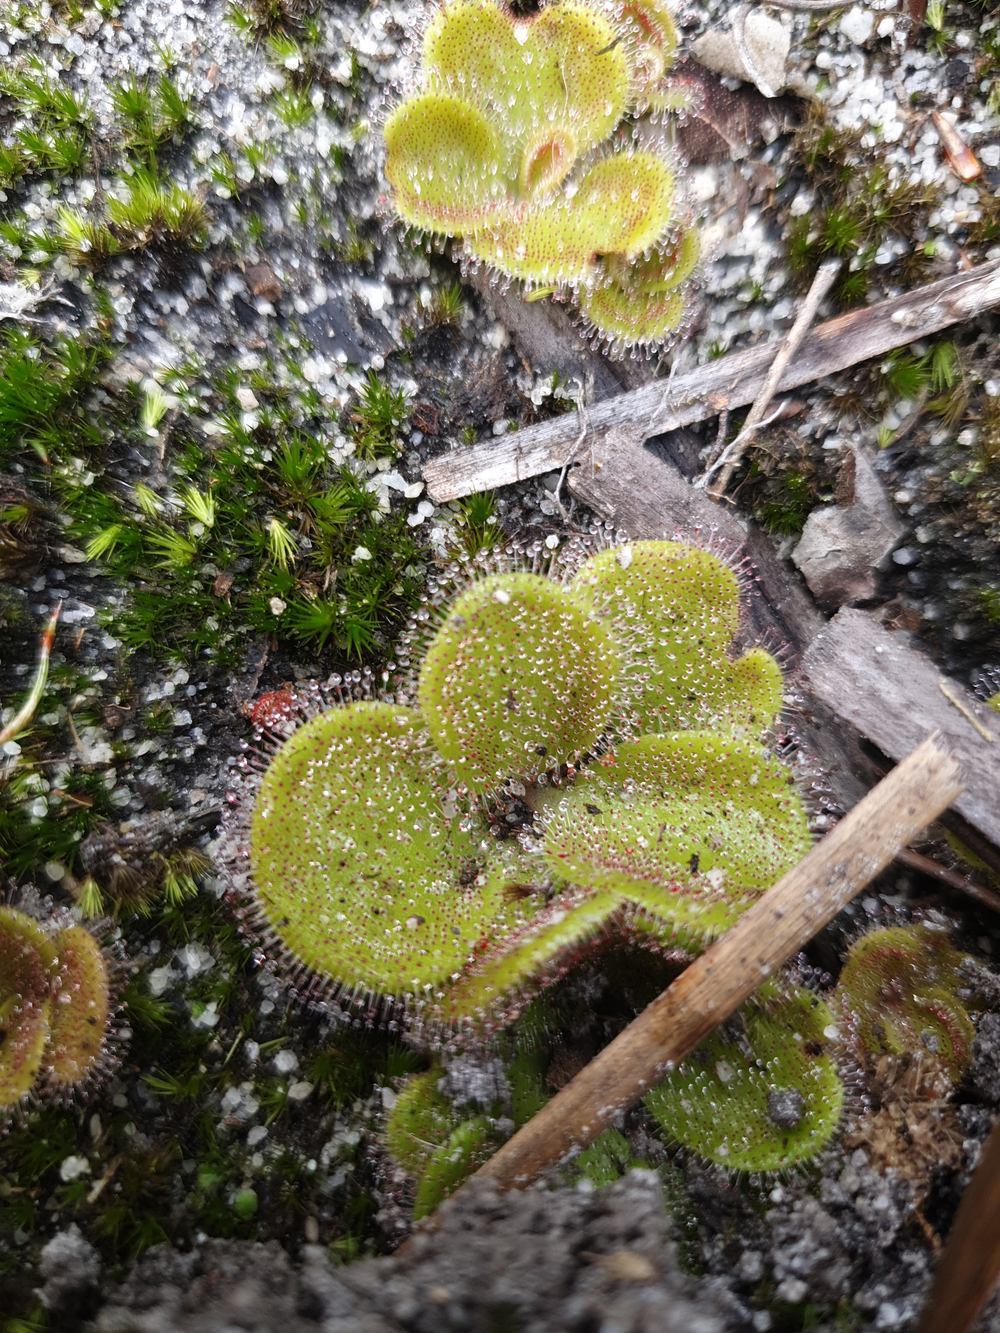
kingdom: Plantae
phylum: Tracheophyta
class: Magnoliopsida
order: Caryophyllales
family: Droseraceae
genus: Drosera
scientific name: Drosera erythrorhiza
